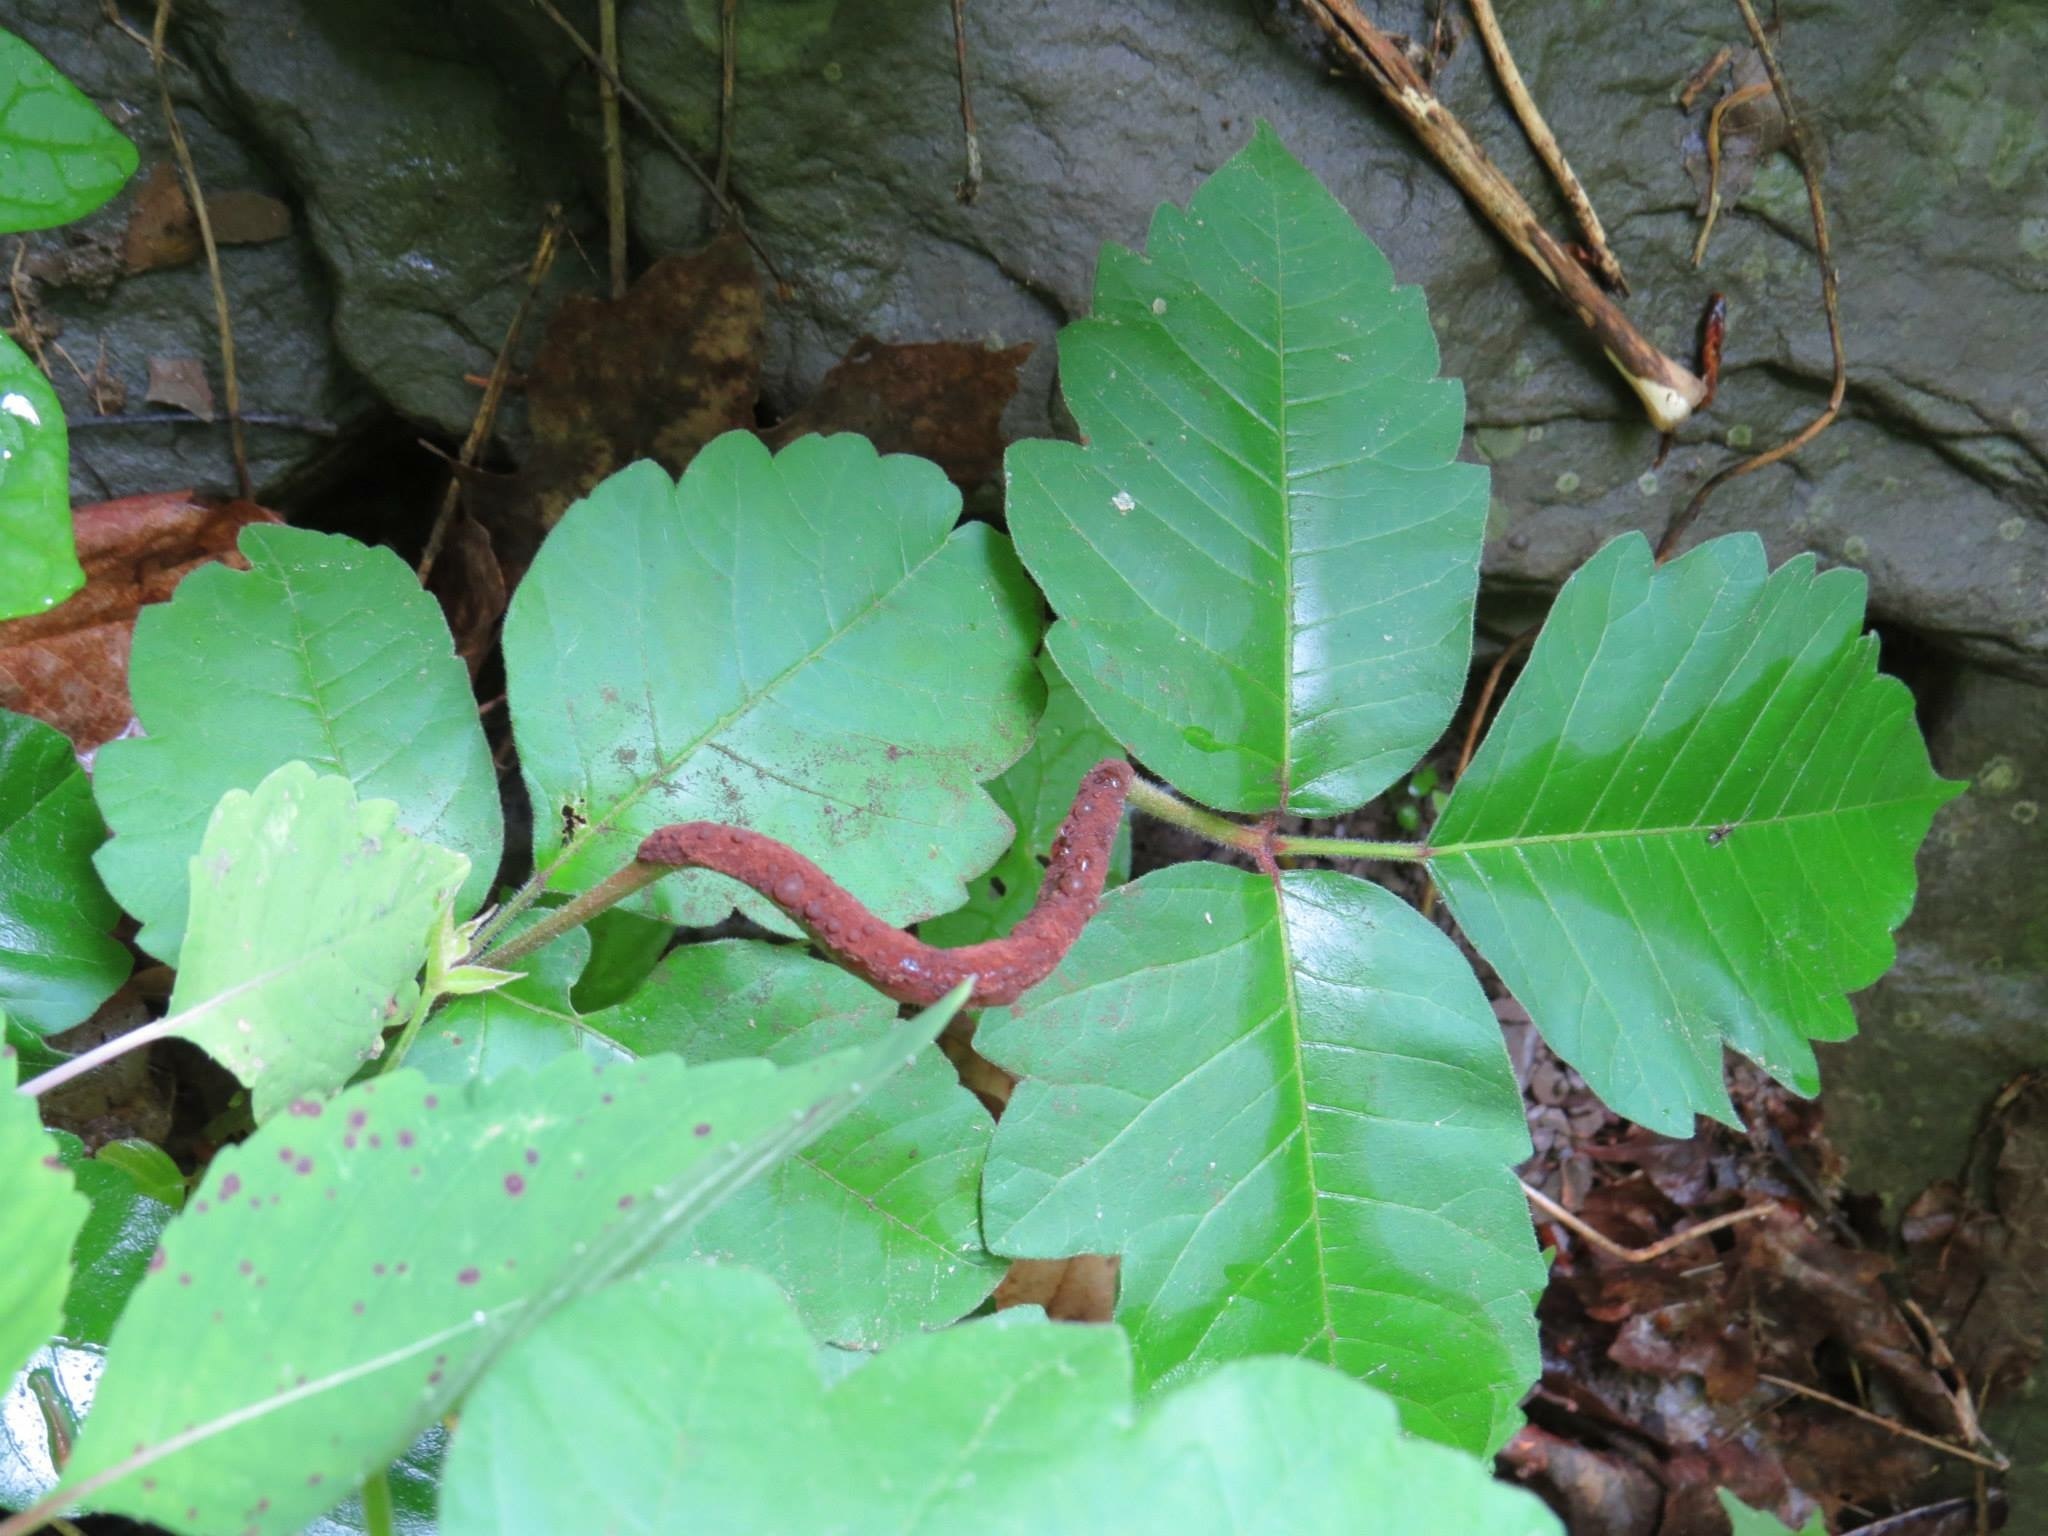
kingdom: Fungi
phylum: Basidiomycota
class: Pucciniomycetes
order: Pucciniales
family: Pileolariaceae
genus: Pileolaria
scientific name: Pileolaria brevipes
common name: Poison ivy rust
